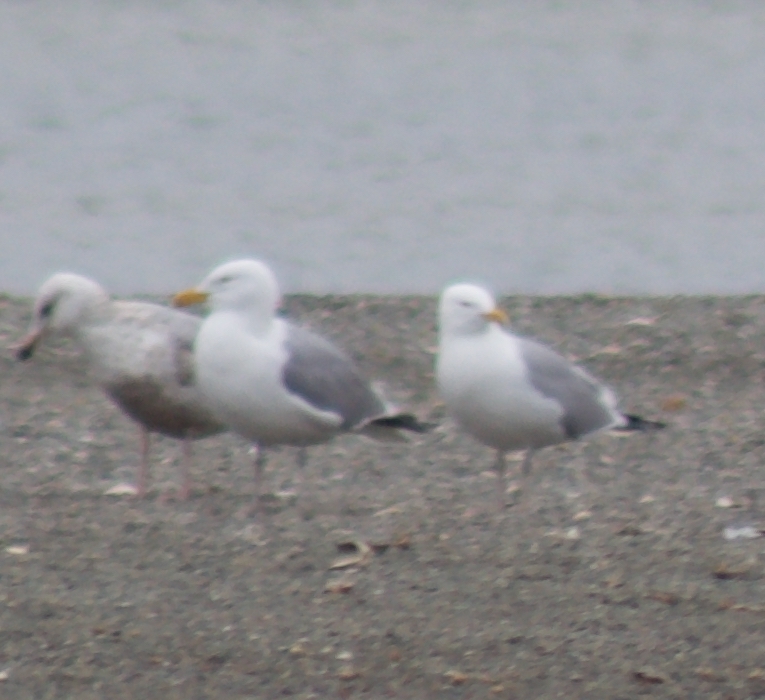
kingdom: Animalia
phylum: Chordata
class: Aves
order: Charadriiformes
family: Laridae
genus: Larus
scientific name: Larus argentatus
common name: Herring gull
